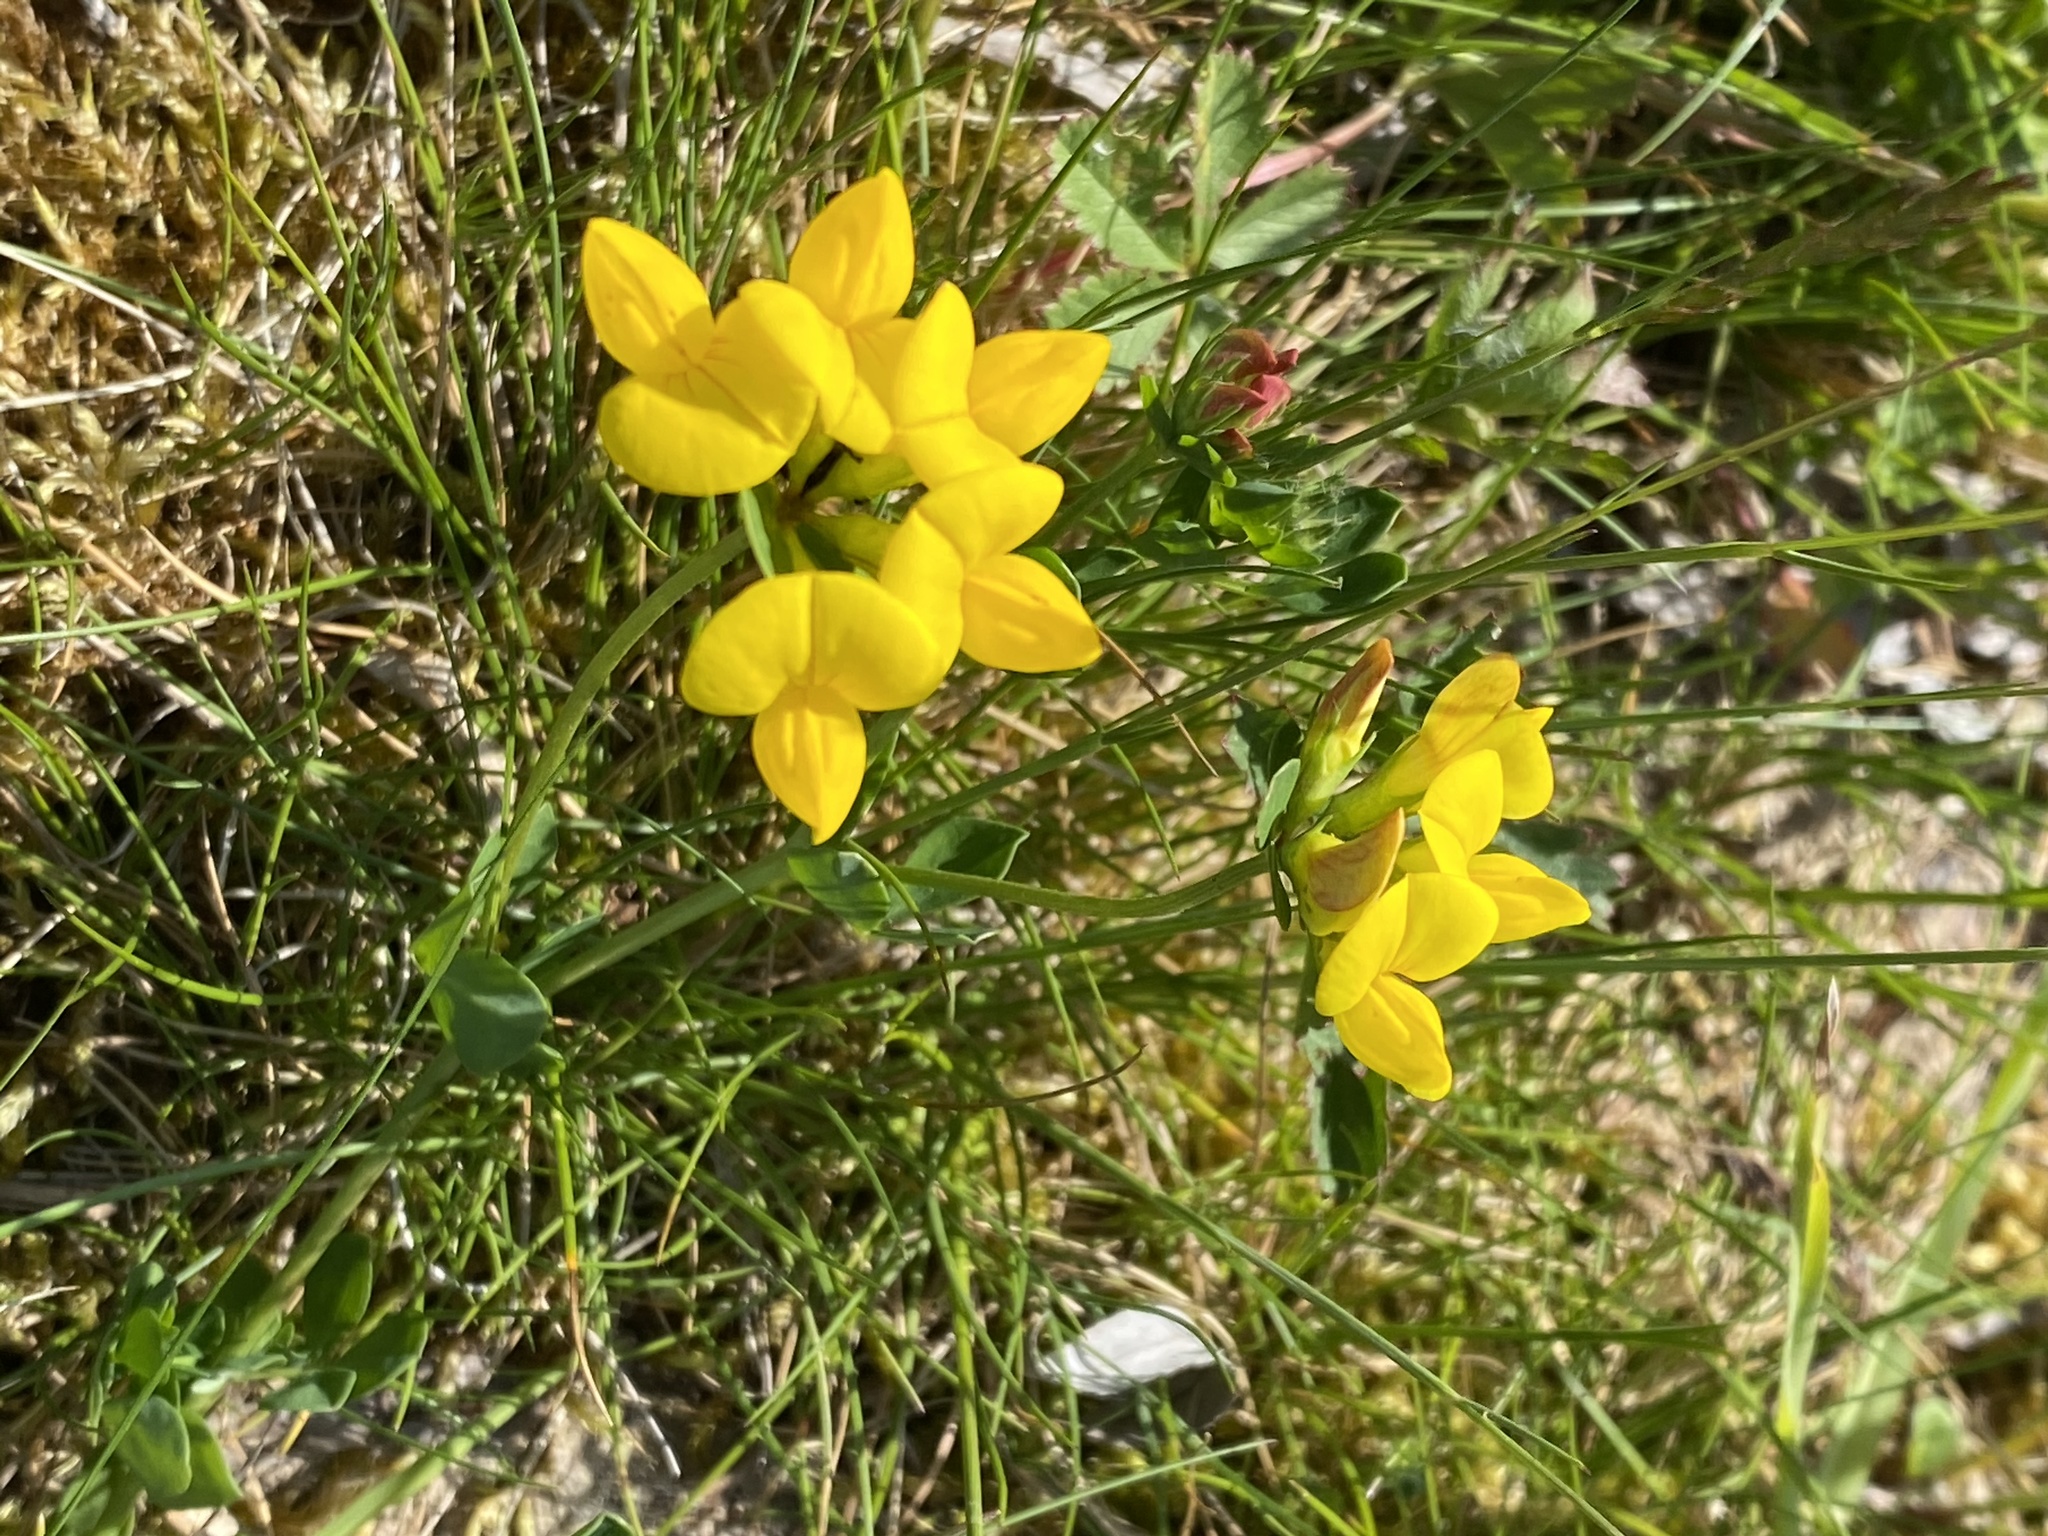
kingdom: Plantae
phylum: Tracheophyta
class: Magnoliopsida
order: Fabales
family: Fabaceae
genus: Lotus
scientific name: Lotus corniculatus
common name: Common bird's-foot-trefoil
